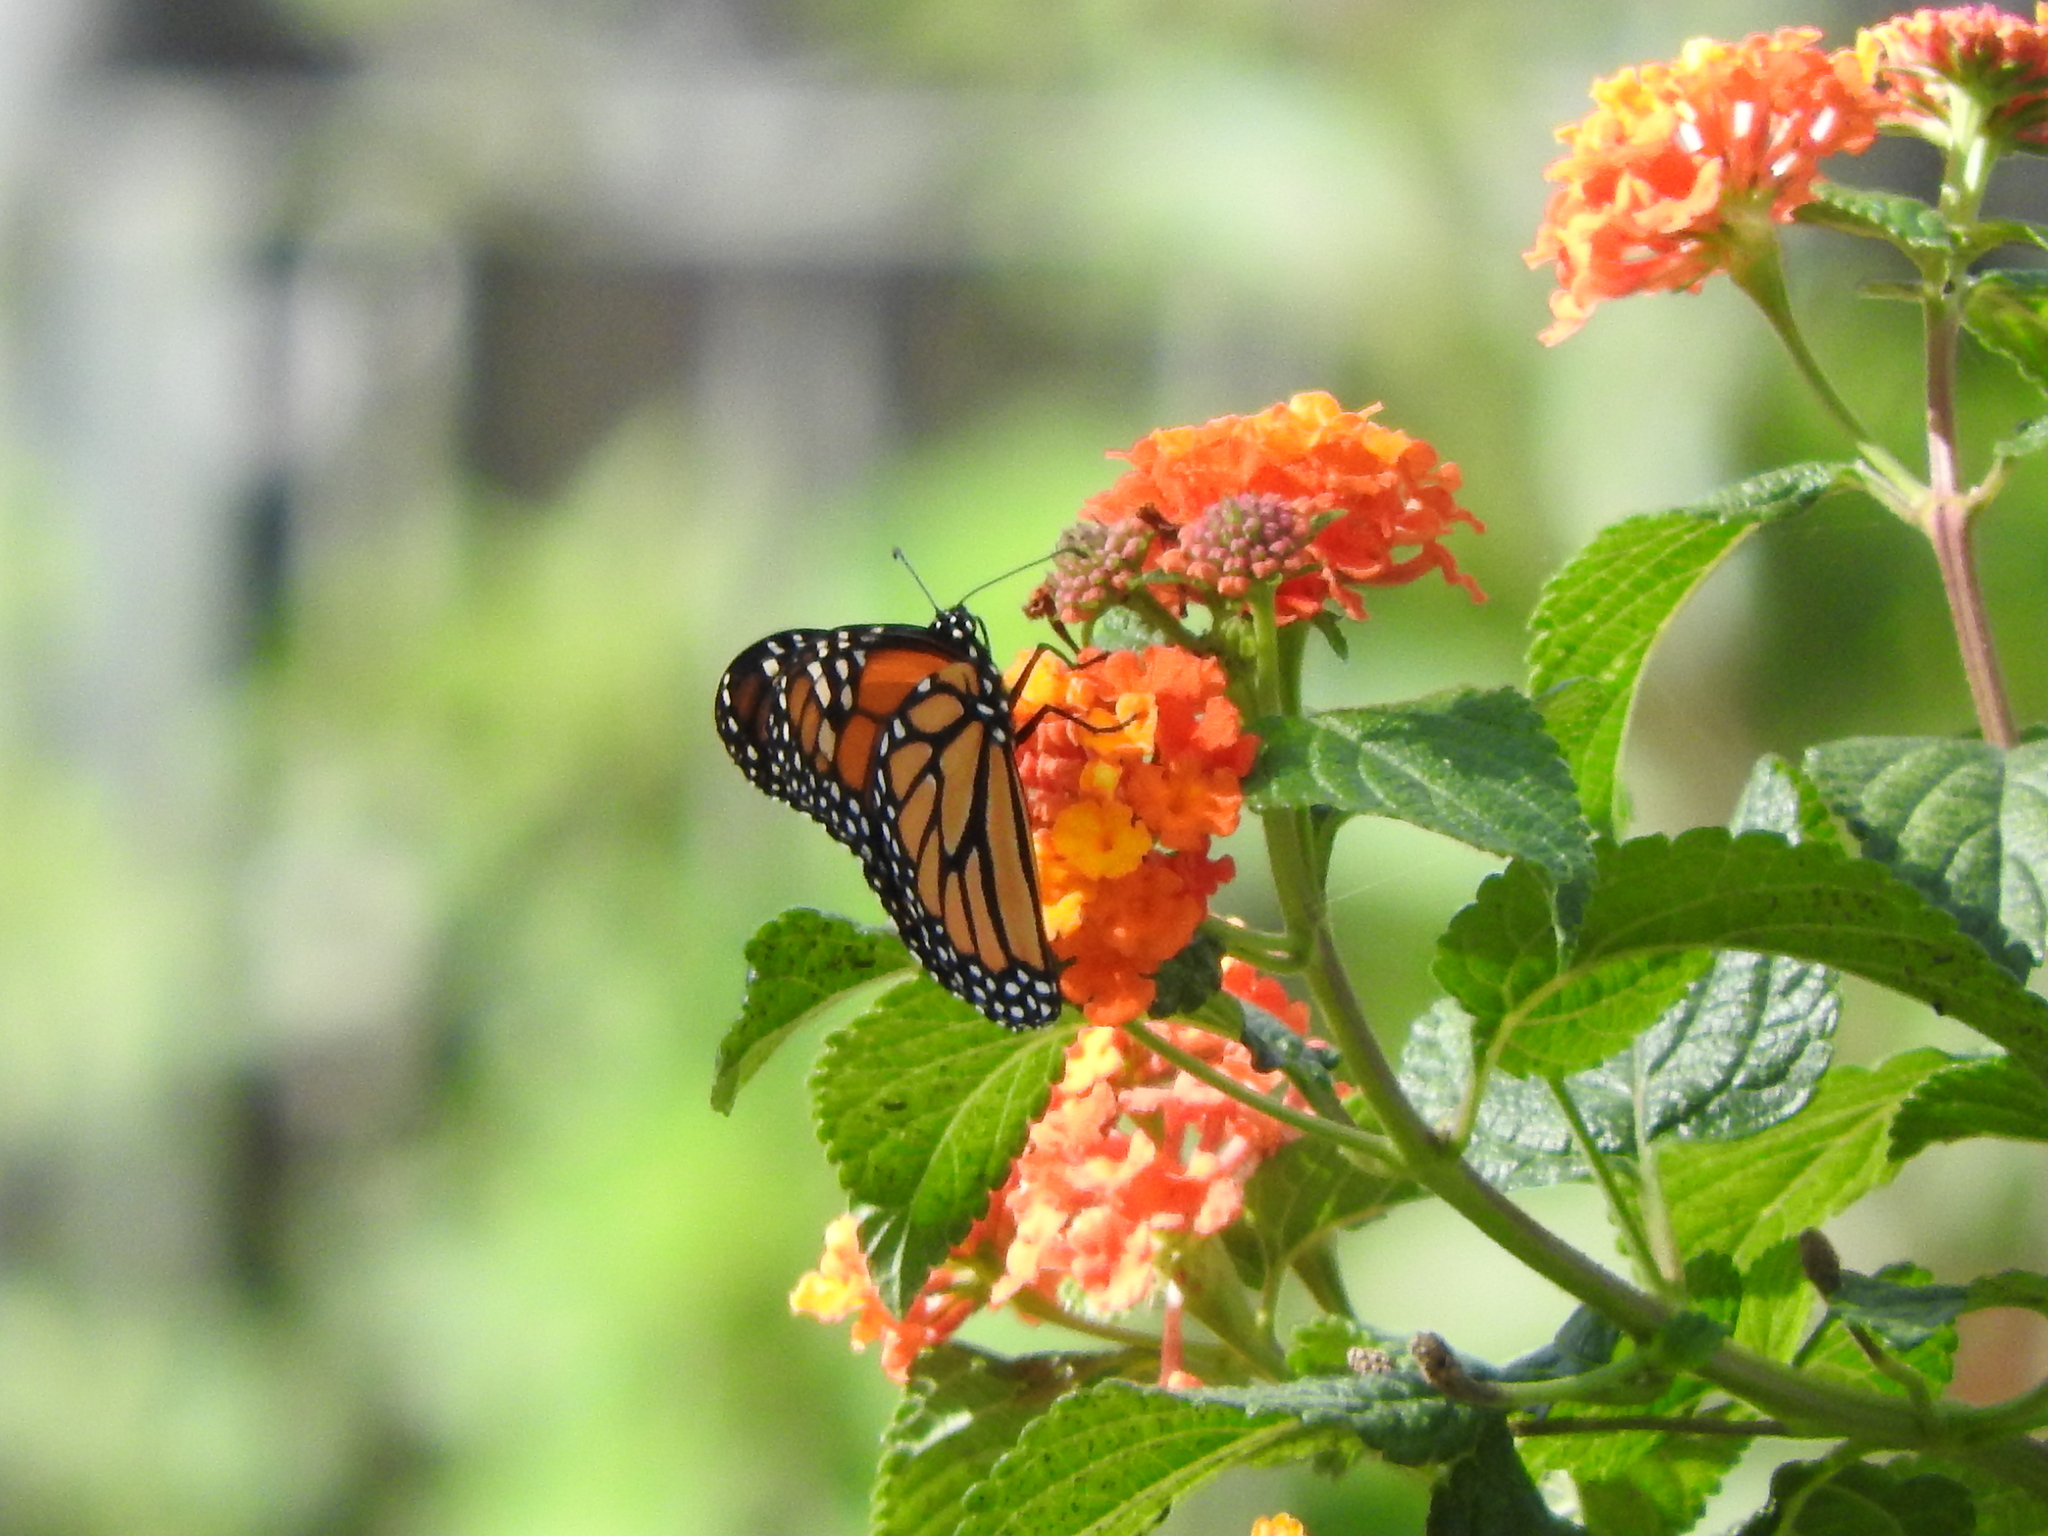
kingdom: Animalia
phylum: Arthropoda
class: Insecta
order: Lepidoptera
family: Nymphalidae
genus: Danaus
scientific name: Danaus plexippus
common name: Monarch
